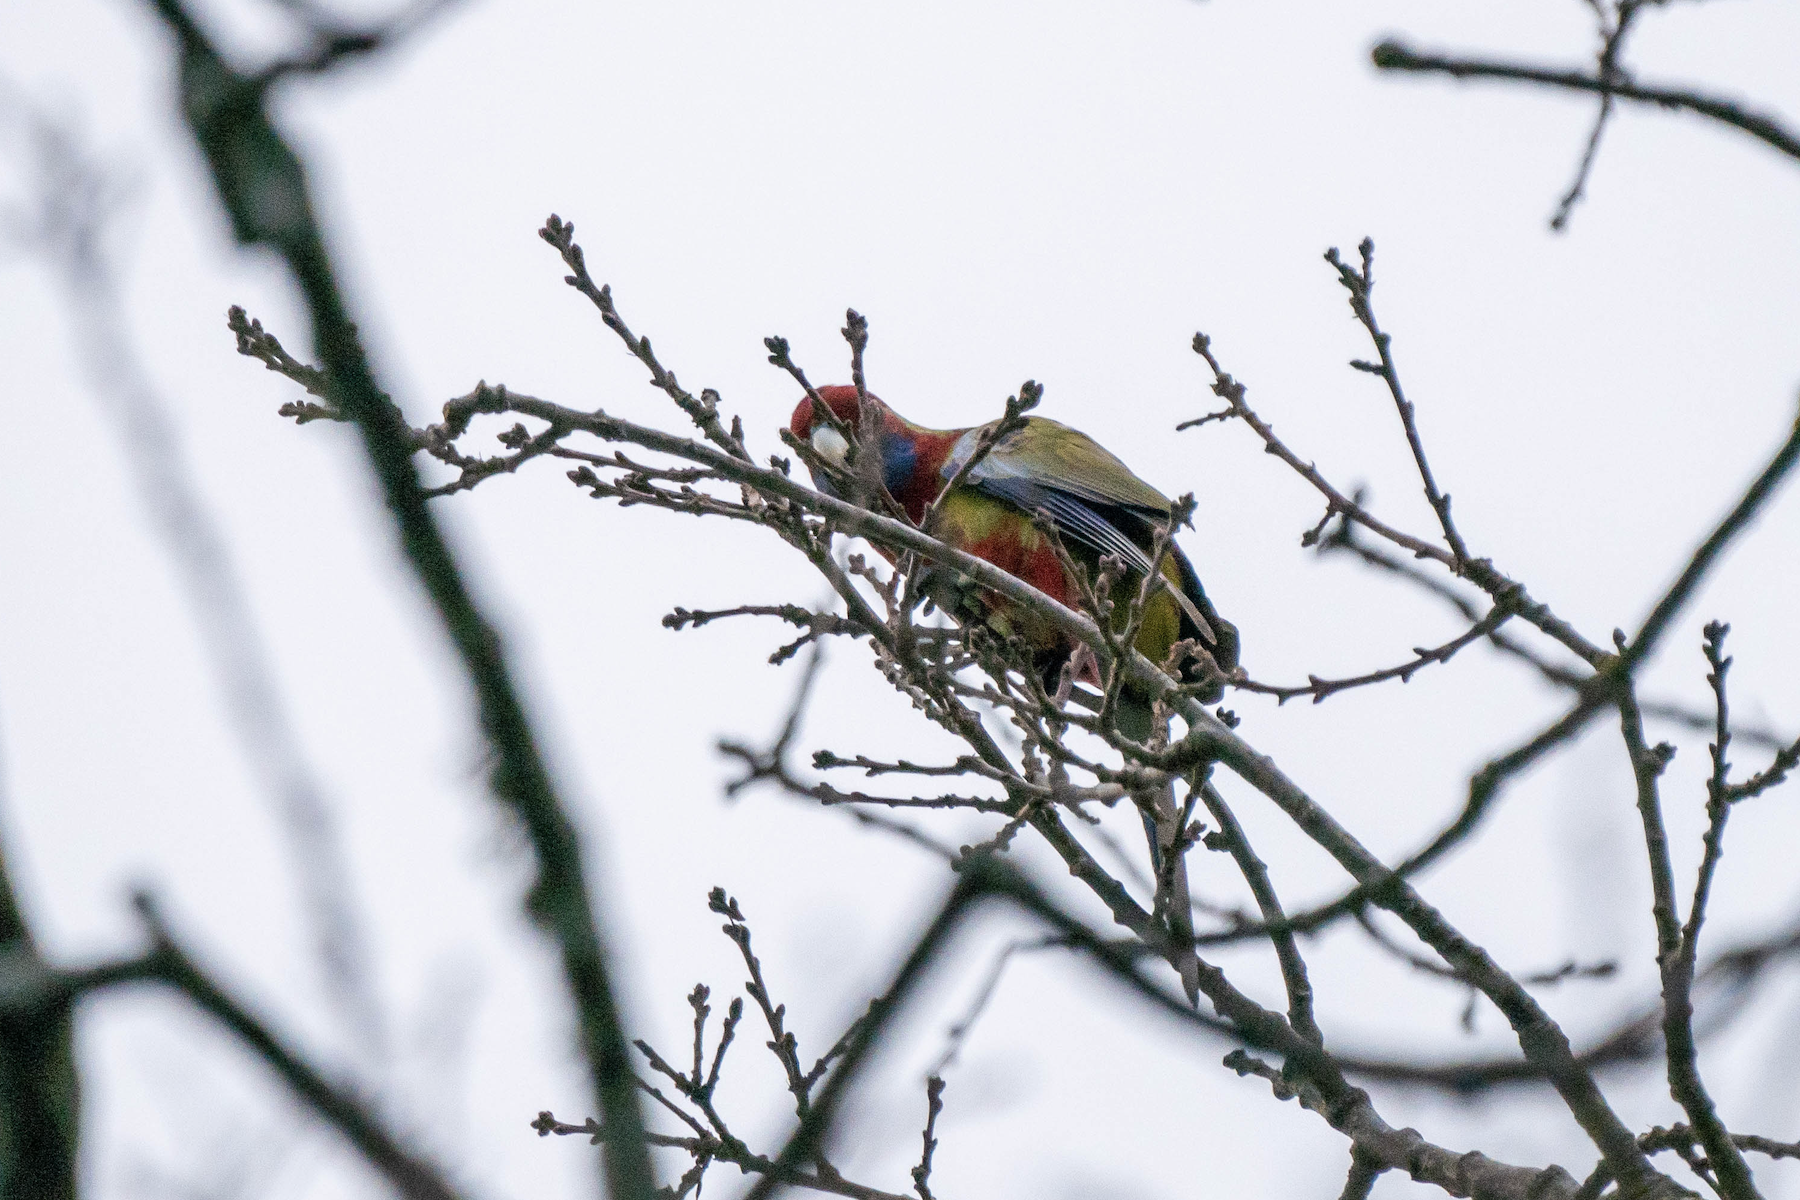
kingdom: Animalia
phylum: Chordata
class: Aves
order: Psittaciformes
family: Psittacidae
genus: Platycercus
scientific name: Platycercus elegans
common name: Crimson rosella
